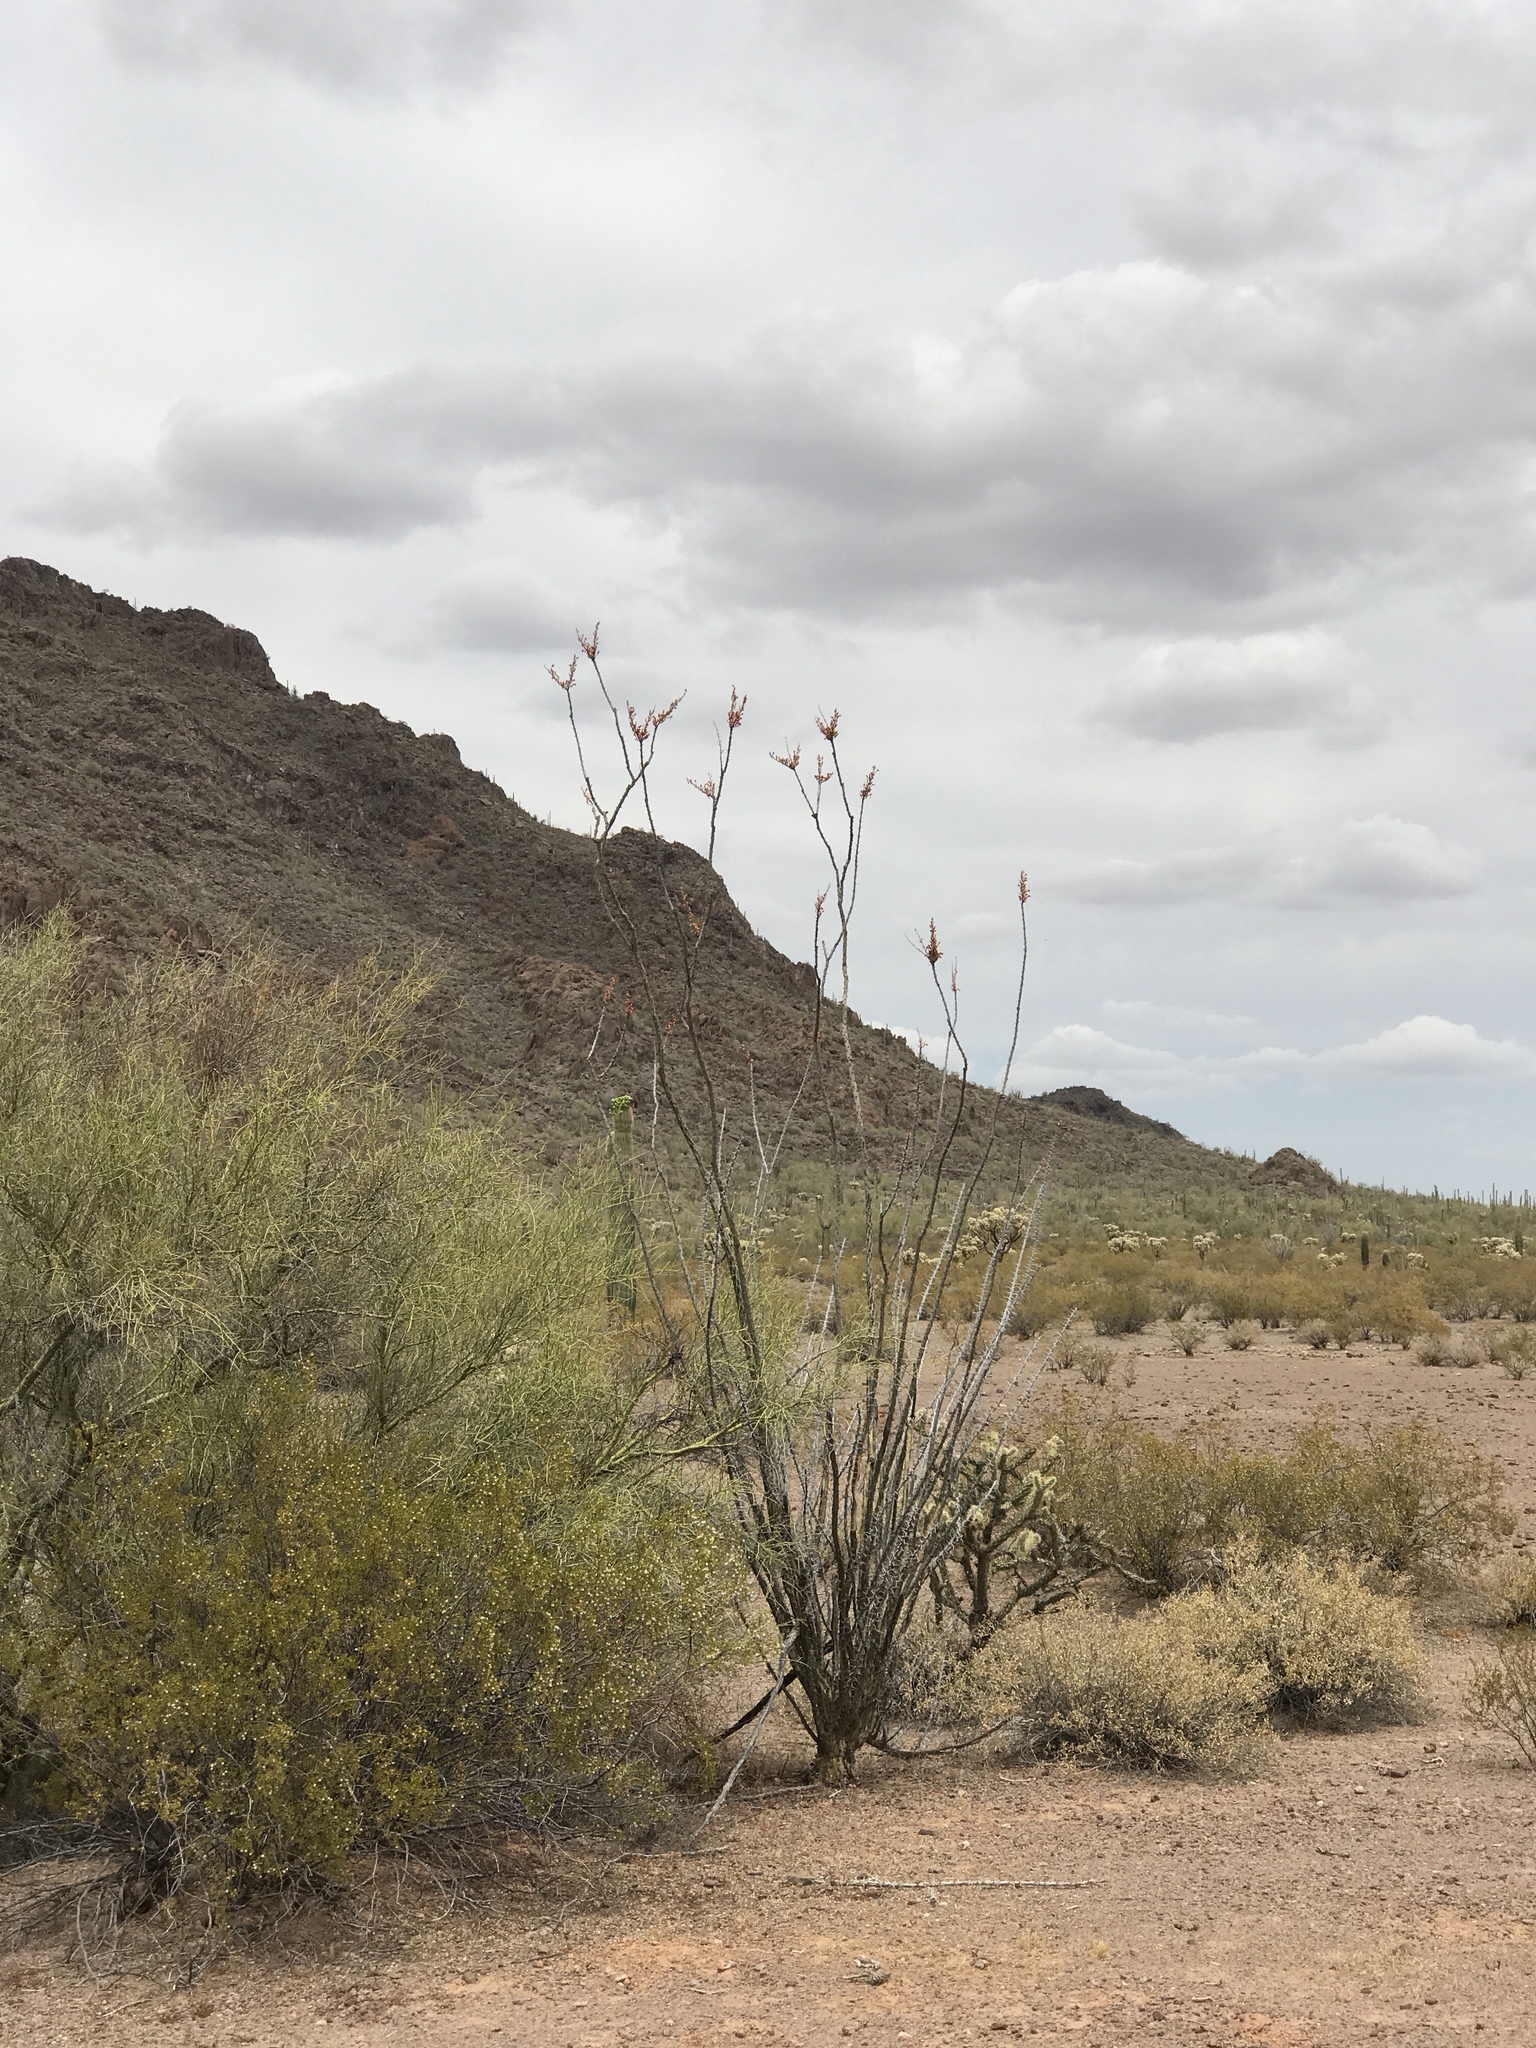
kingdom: Plantae
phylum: Tracheophyta
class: Magnoliopsida
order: Ericales
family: Fouquieriaceae
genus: Fouquieria
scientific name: Fouquieria splendens
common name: Vine-cactus
